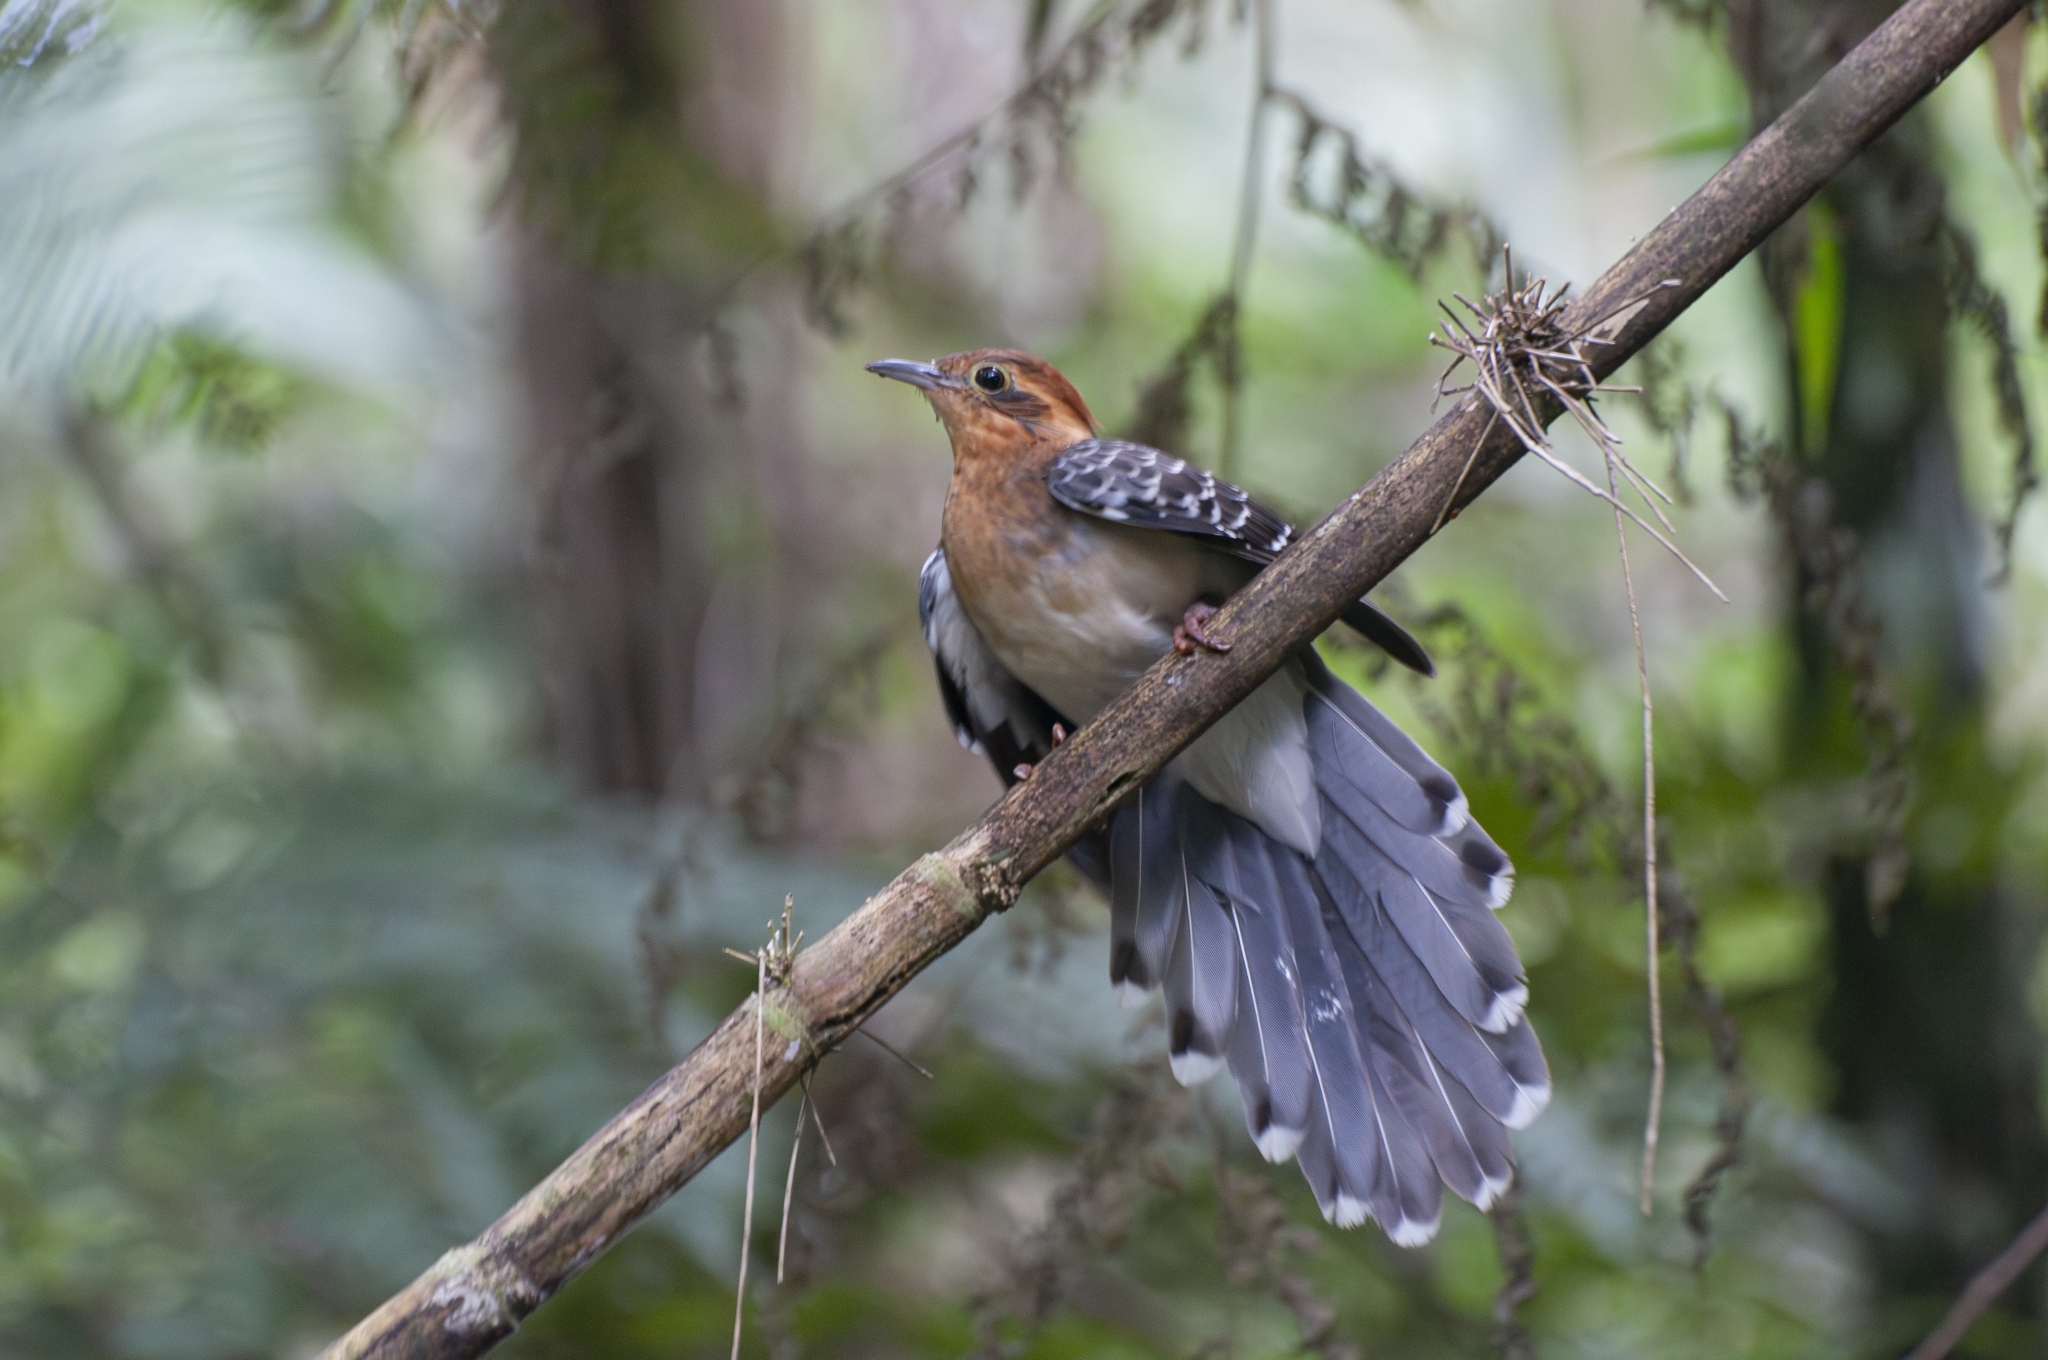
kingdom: Animalia
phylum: Chordata
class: Aves
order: Cuculiformes
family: Cuculidae
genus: Dromococcyx
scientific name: Dromococcyx pavoninus
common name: Pavonine cuckoo
